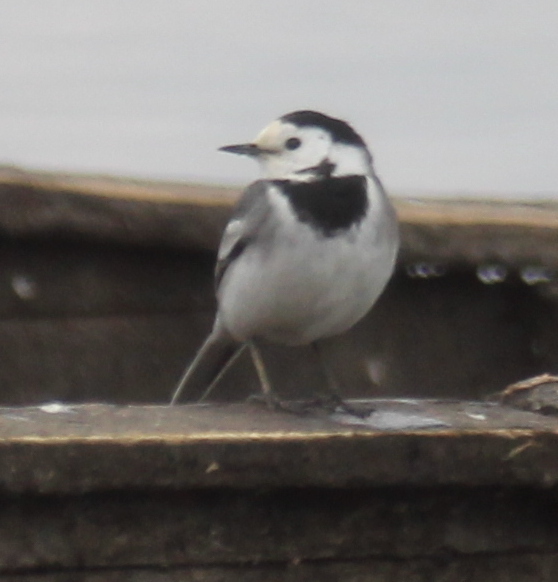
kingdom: Animalia
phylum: Chordata
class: Aves
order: Passeriformes
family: Motacillidae
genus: Motacilla
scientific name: Motacilla alba
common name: White wagtail
